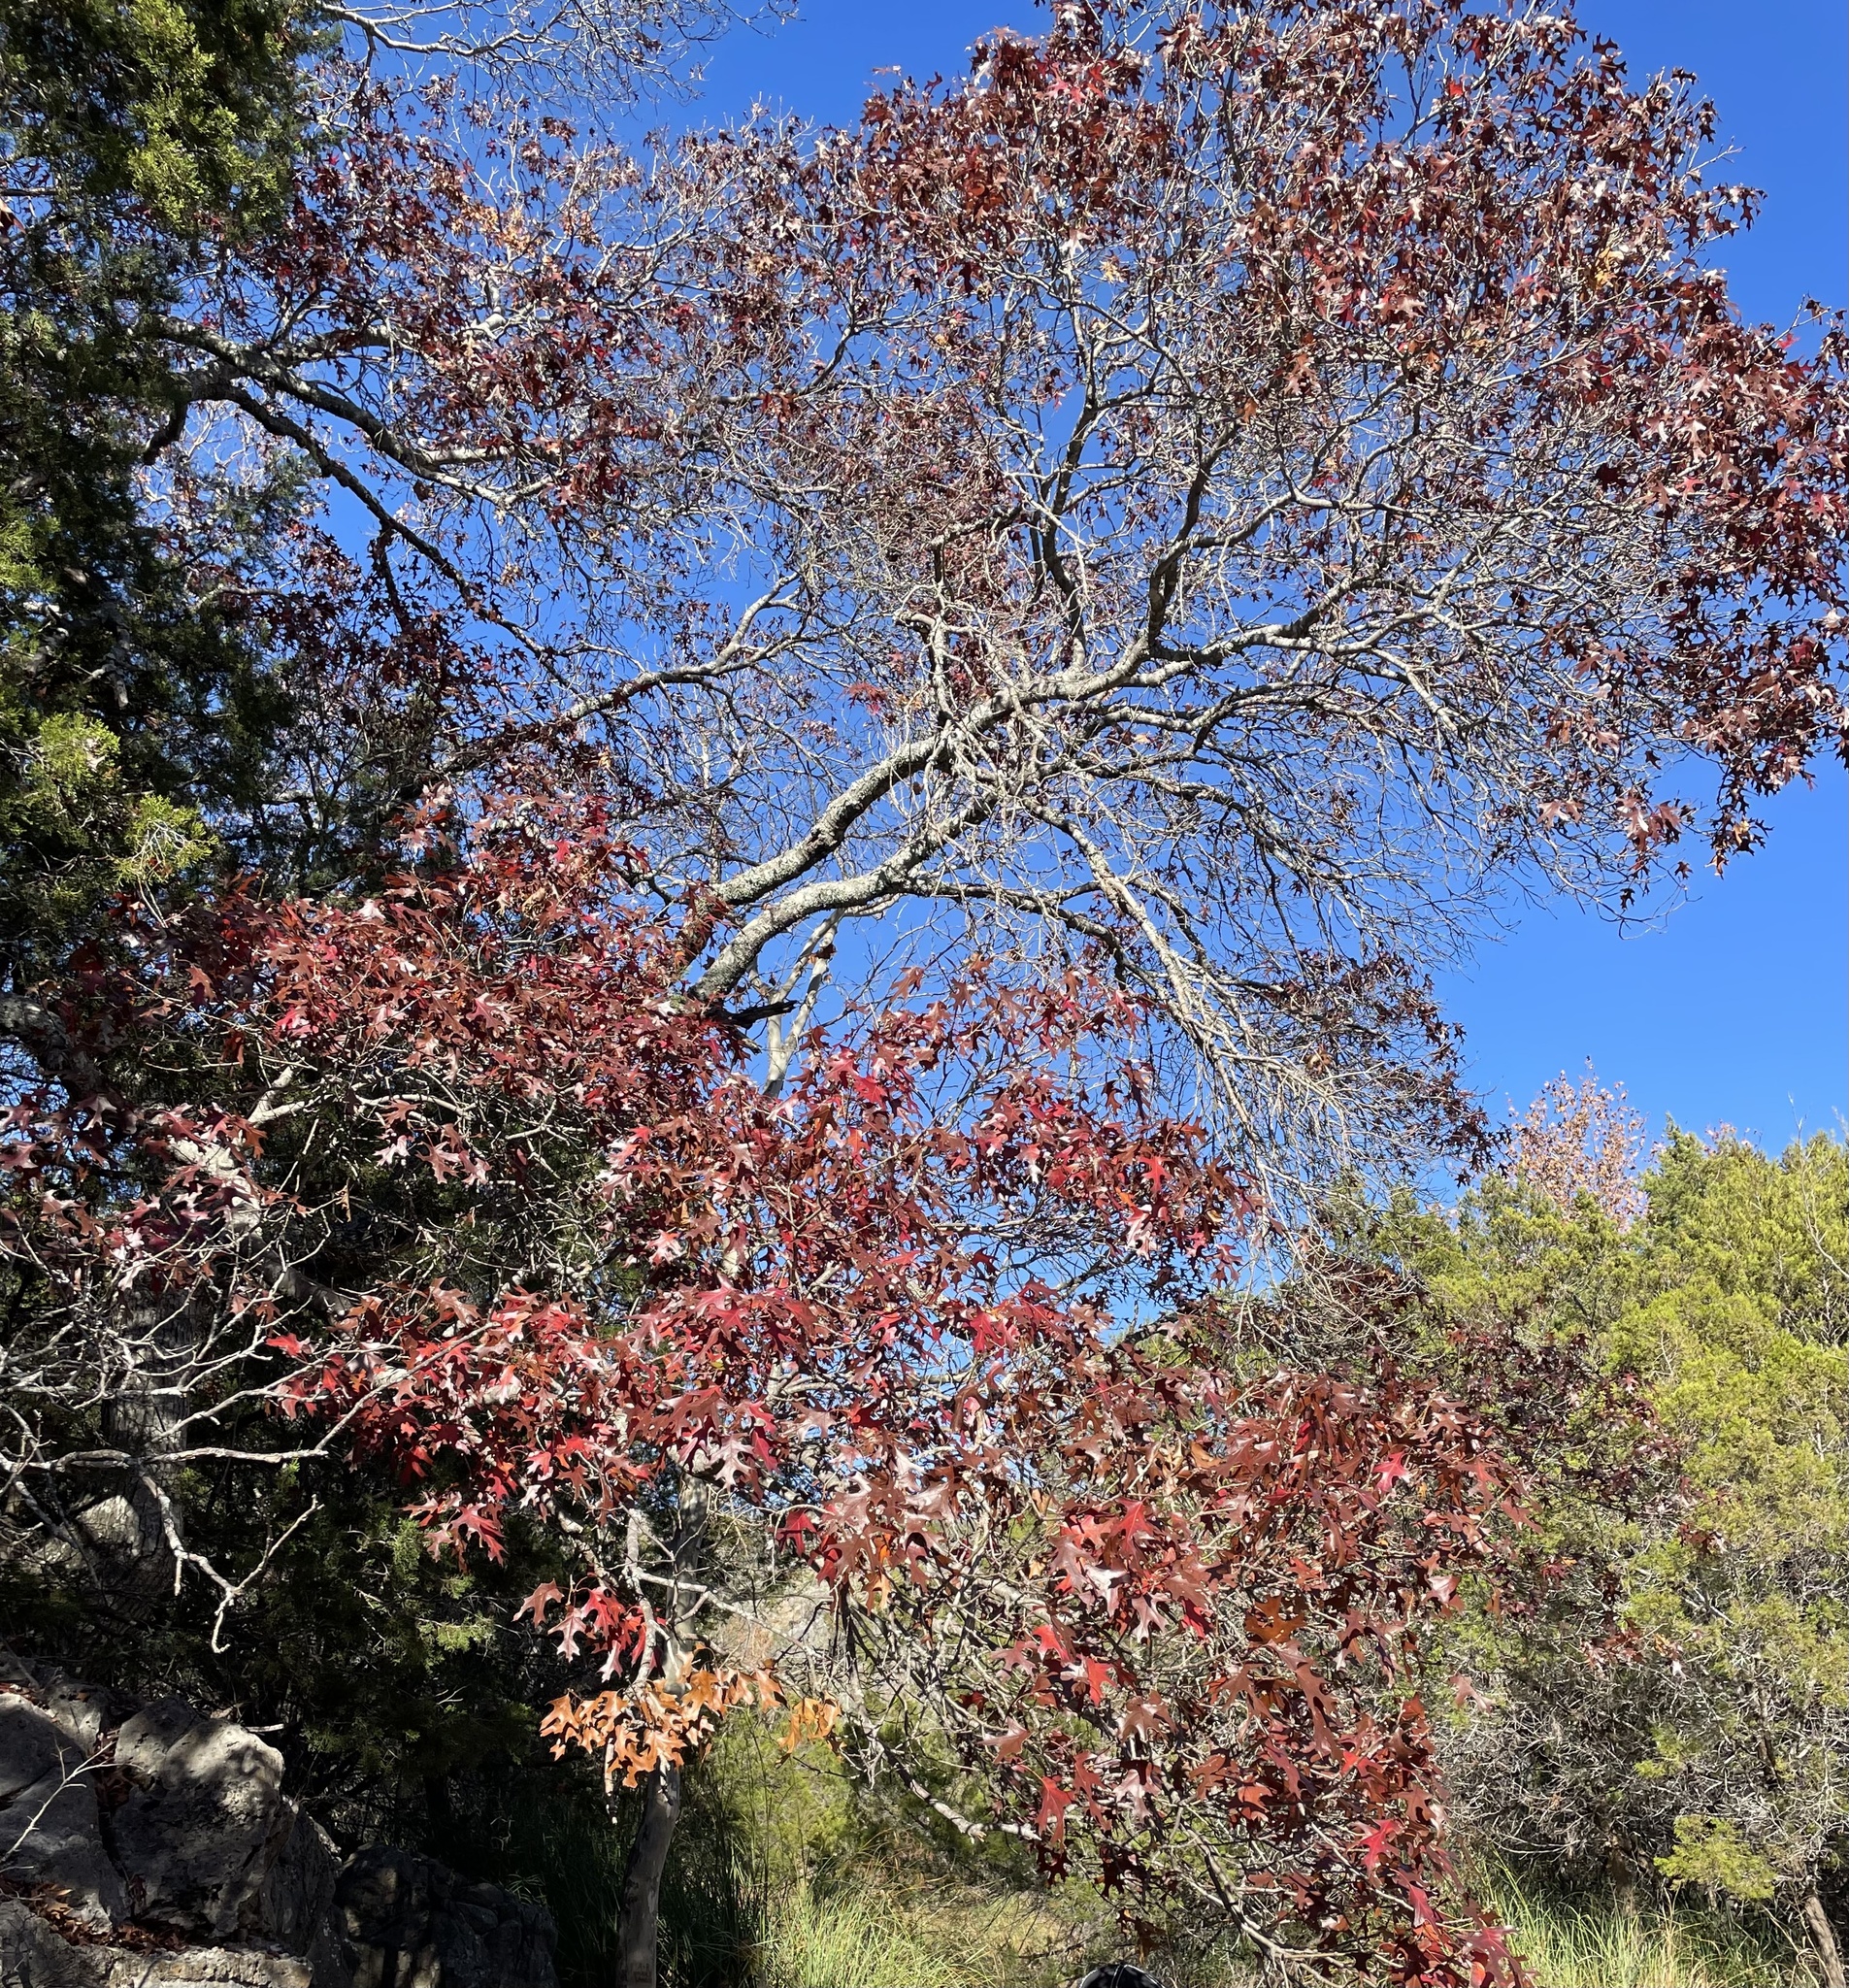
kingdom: Plantae
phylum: Tracheophyta
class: Magnoliopsida
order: Fagales
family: Fagaceae
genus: Quercus
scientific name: Quercus buckleyi
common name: Buckley oak
